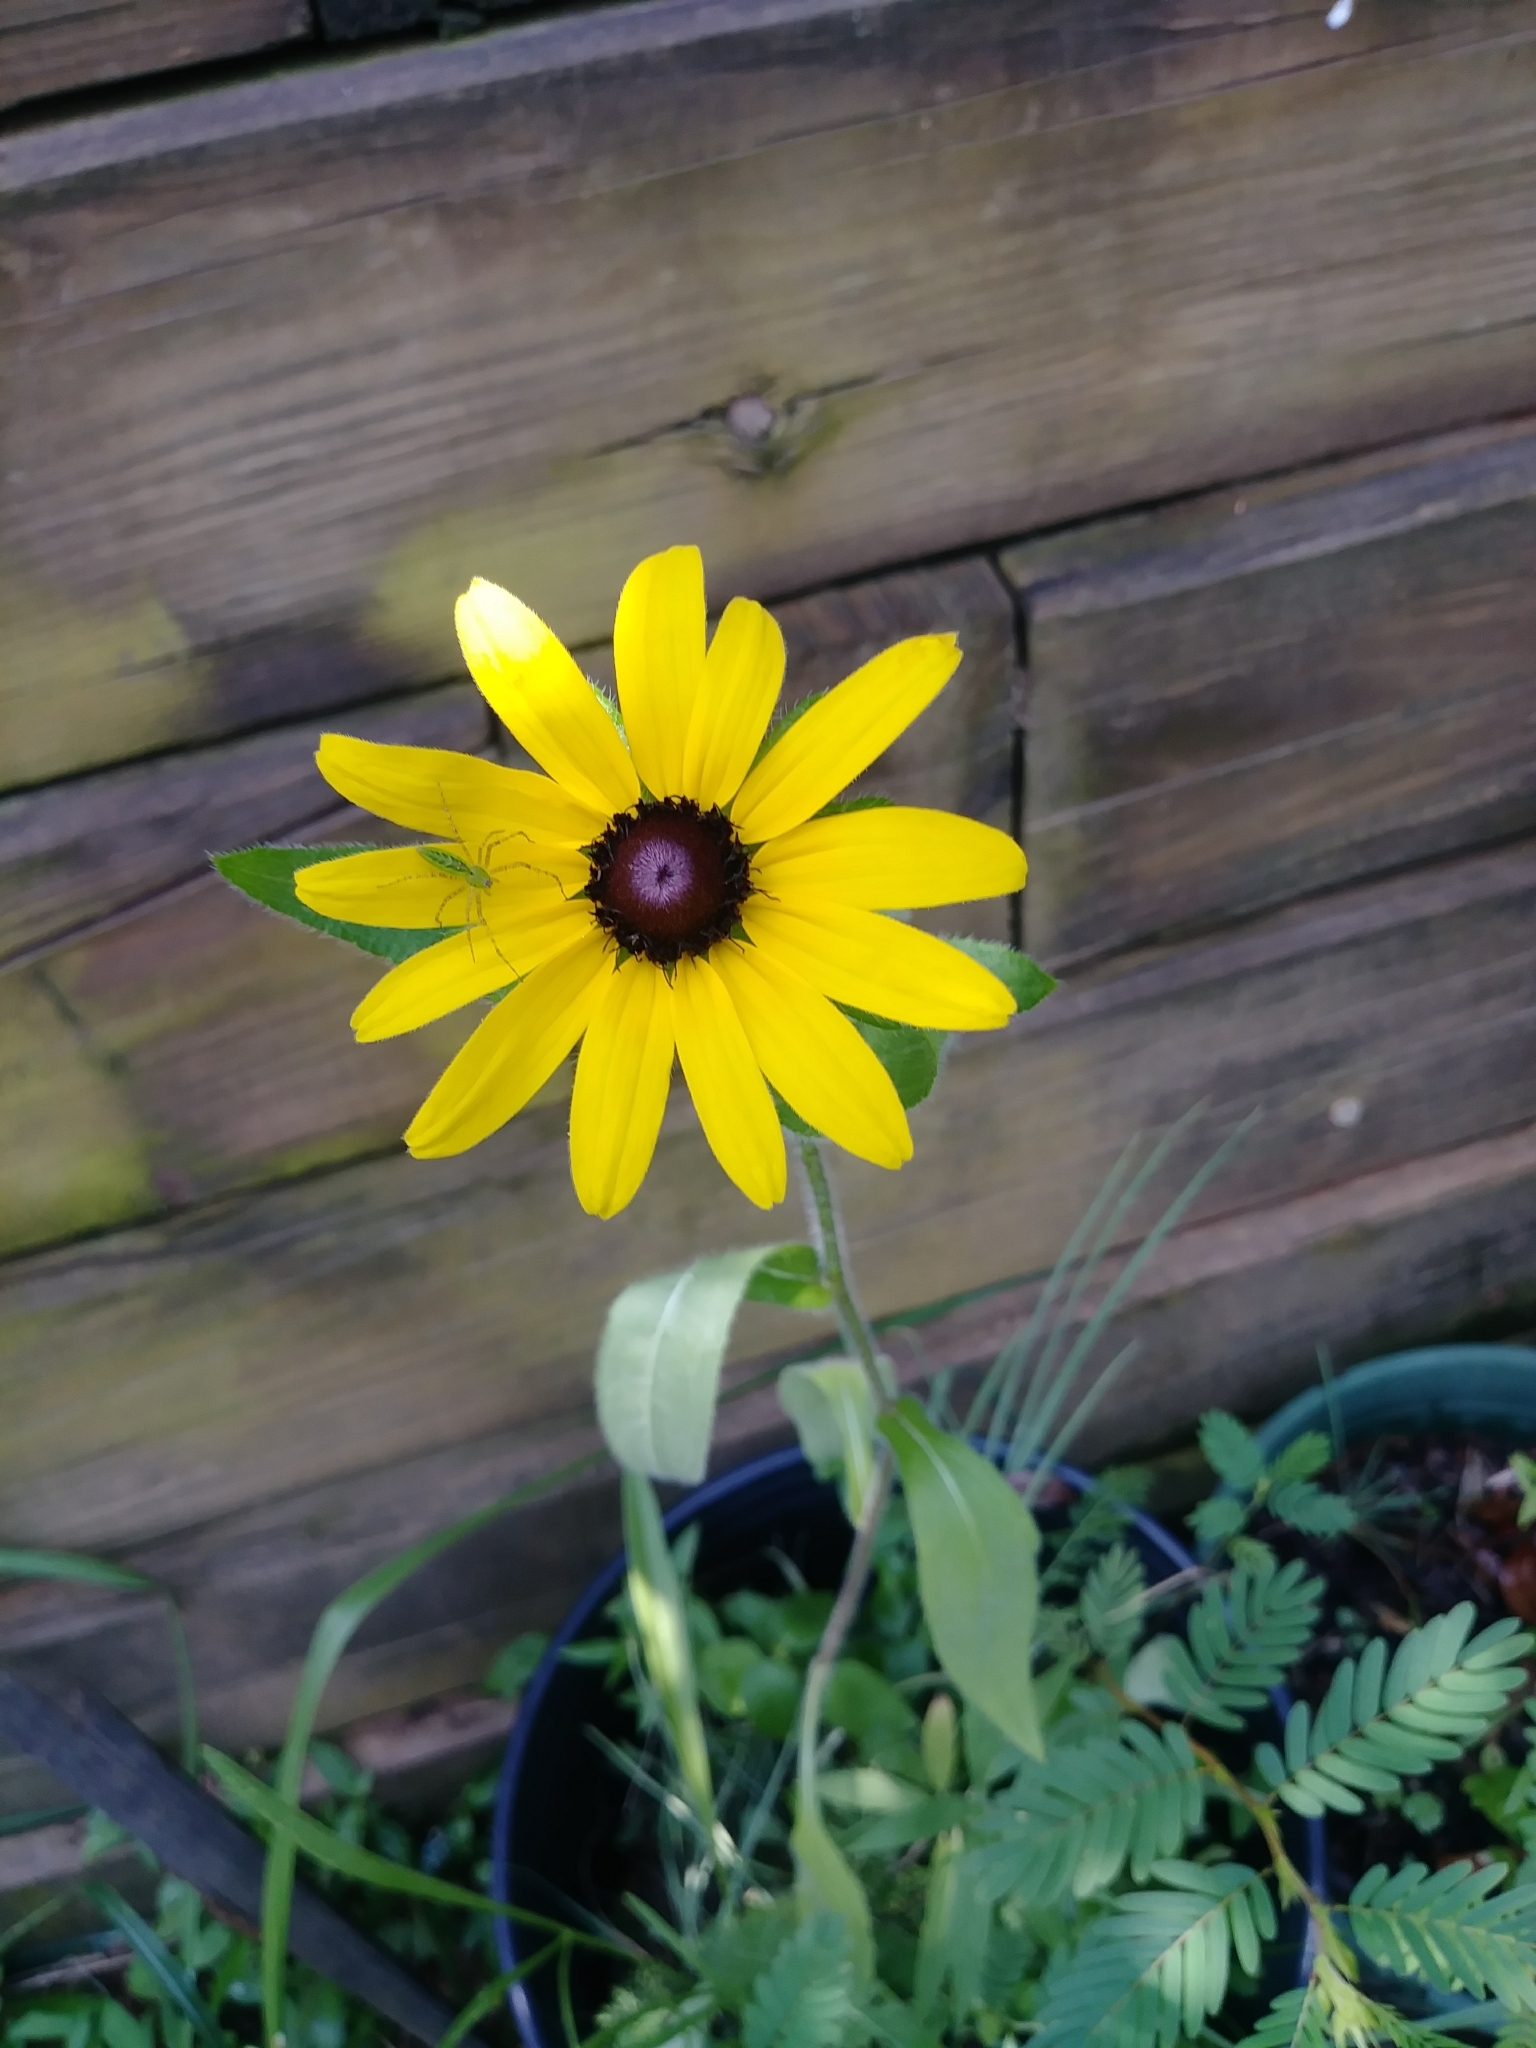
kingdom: Animalia
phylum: Arthropoda
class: Arachnida
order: Araneae
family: Oxyopidae
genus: Peucetia
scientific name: Peucetia viridans
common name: Lynx spiders
